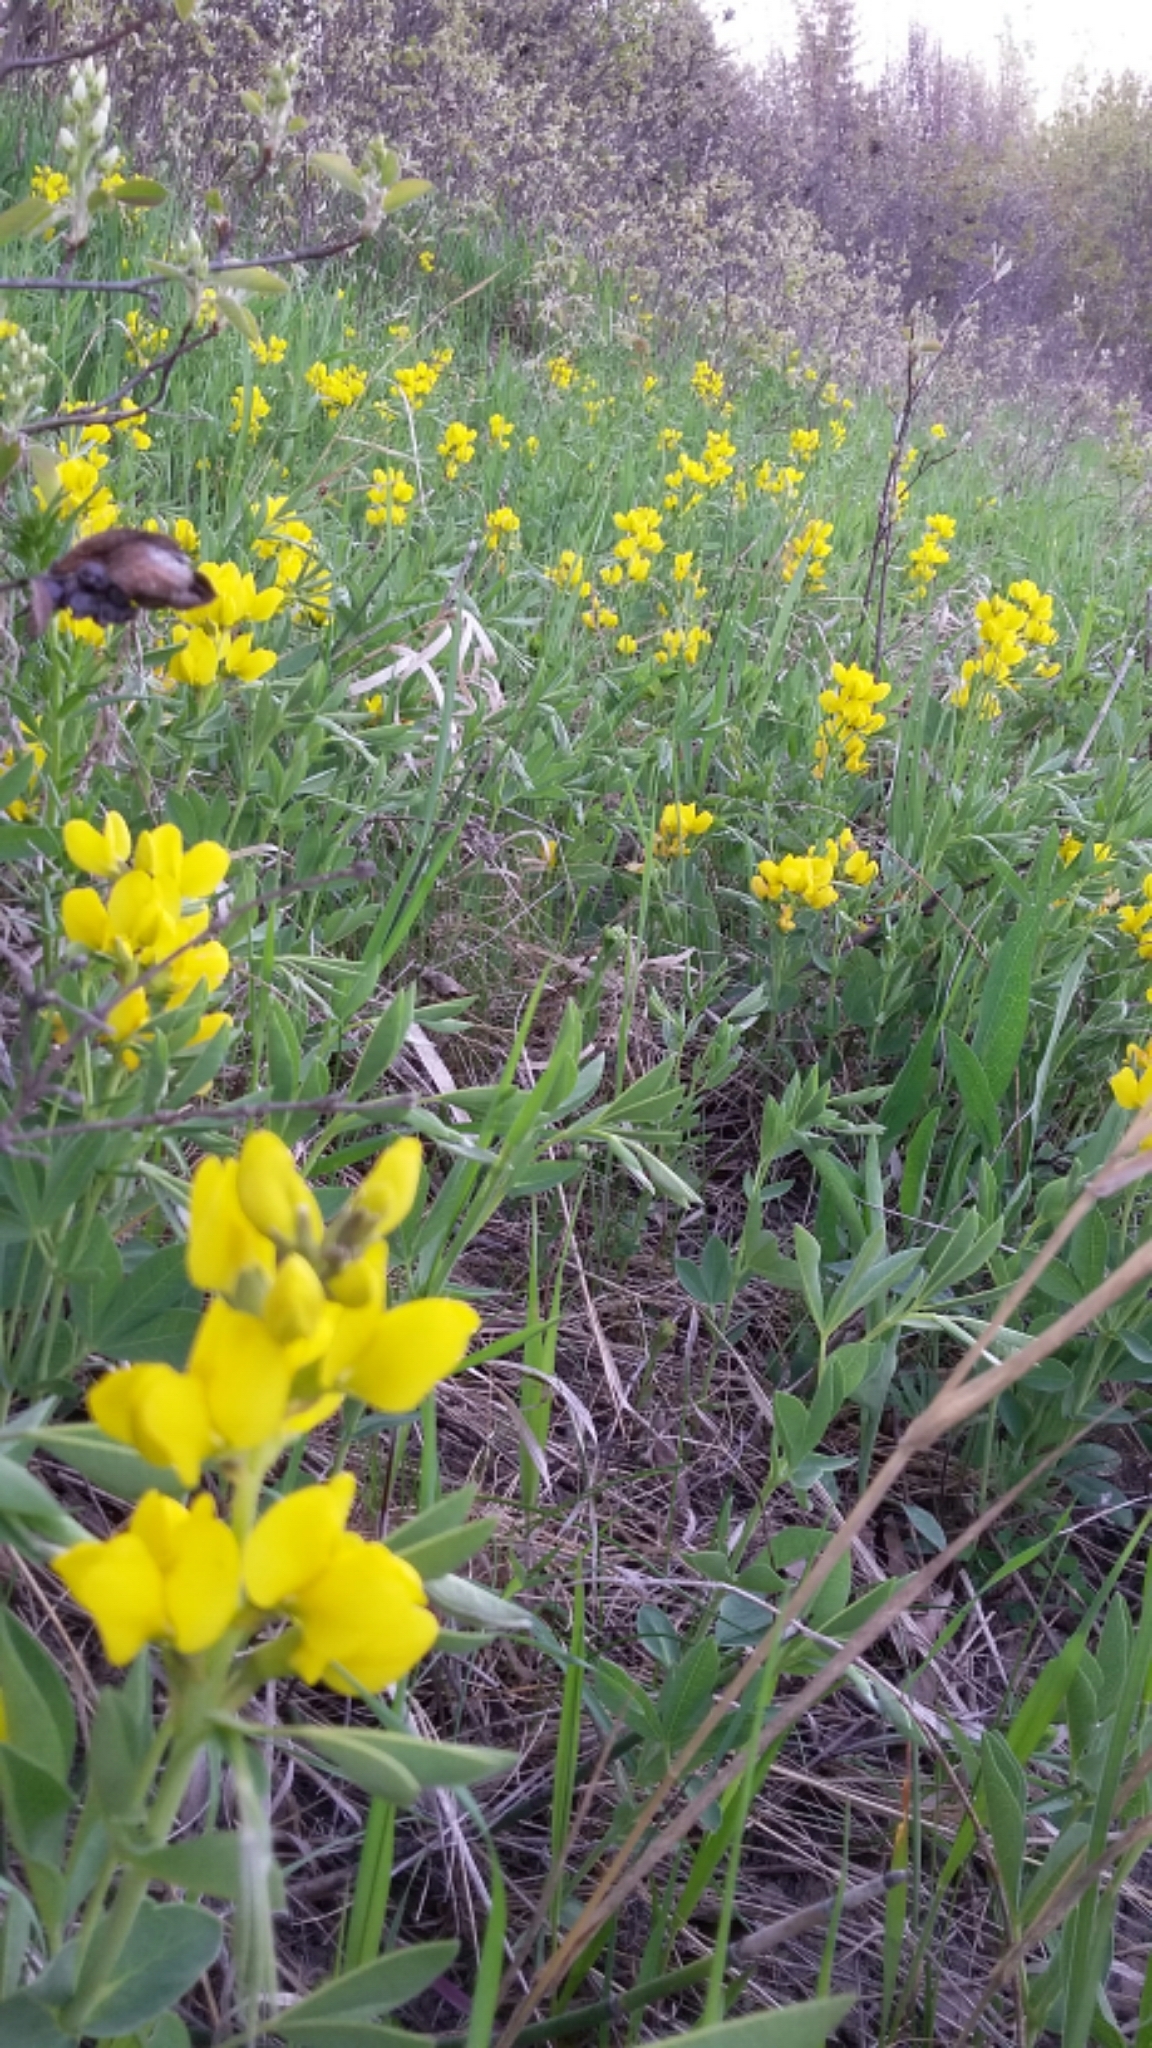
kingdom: Plantae
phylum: Tracheophyta
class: Magnoliopsida
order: Fabales
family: Fabaceae
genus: Thermopsis
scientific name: Thermopsis rhombifolia
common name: Circle-pod-pea
